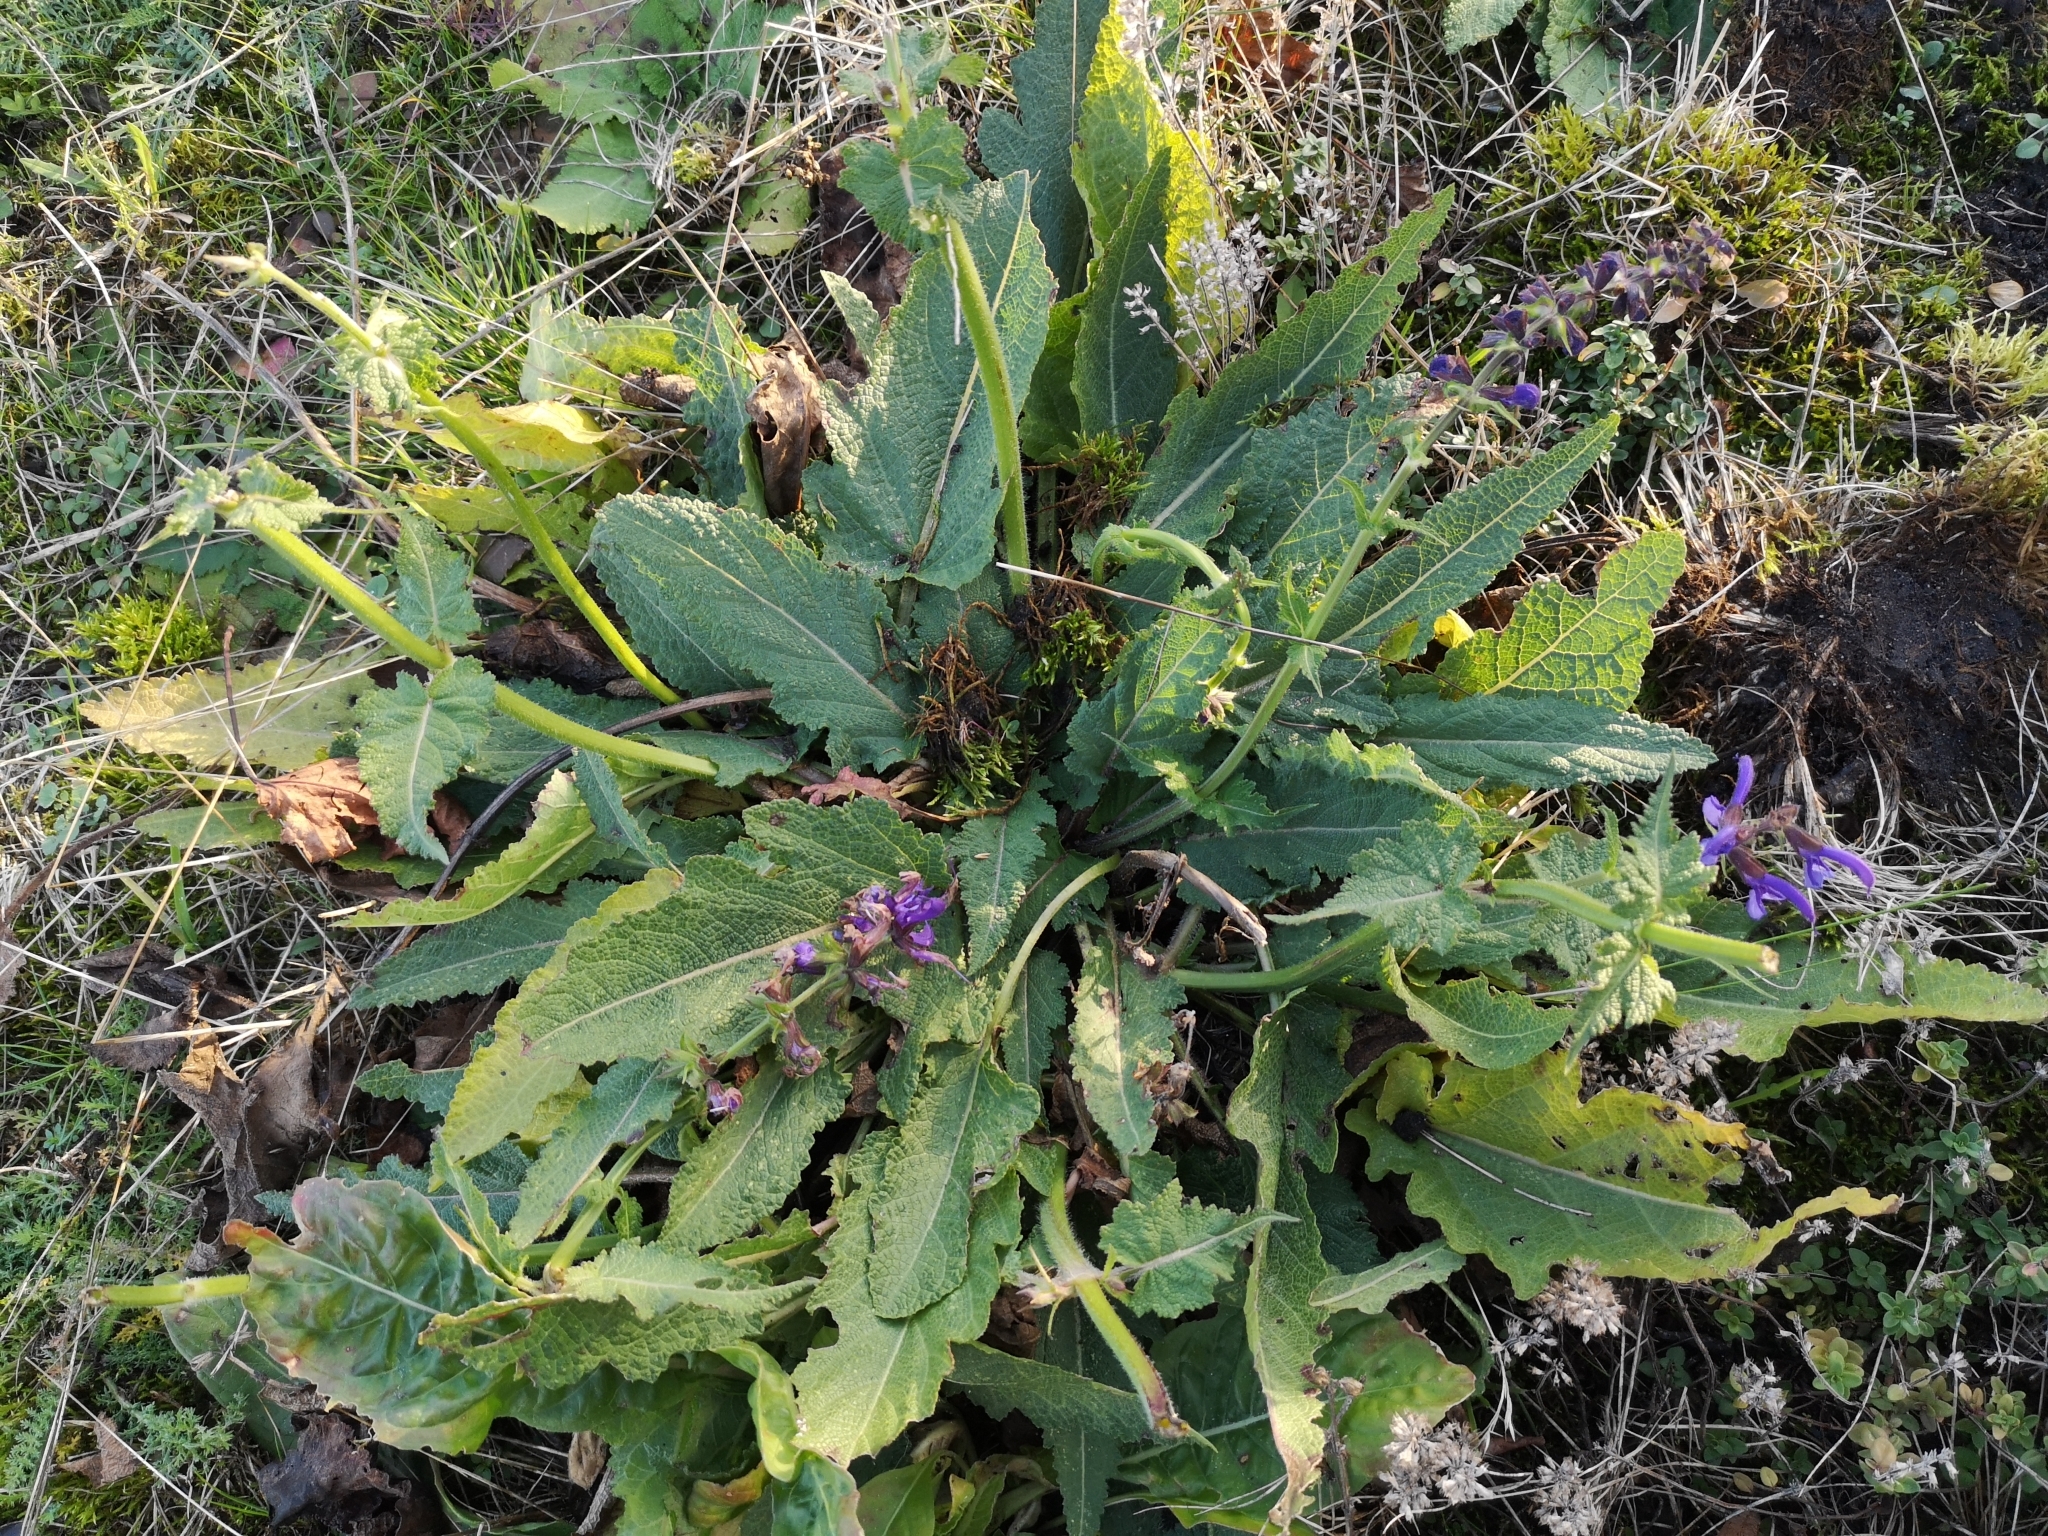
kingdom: Plantae
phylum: Tracheophyta
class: Magnoliopsida
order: Lamiales
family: Lamiaceae
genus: Salvia
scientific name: Salvia pratensis
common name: Meadow sage
